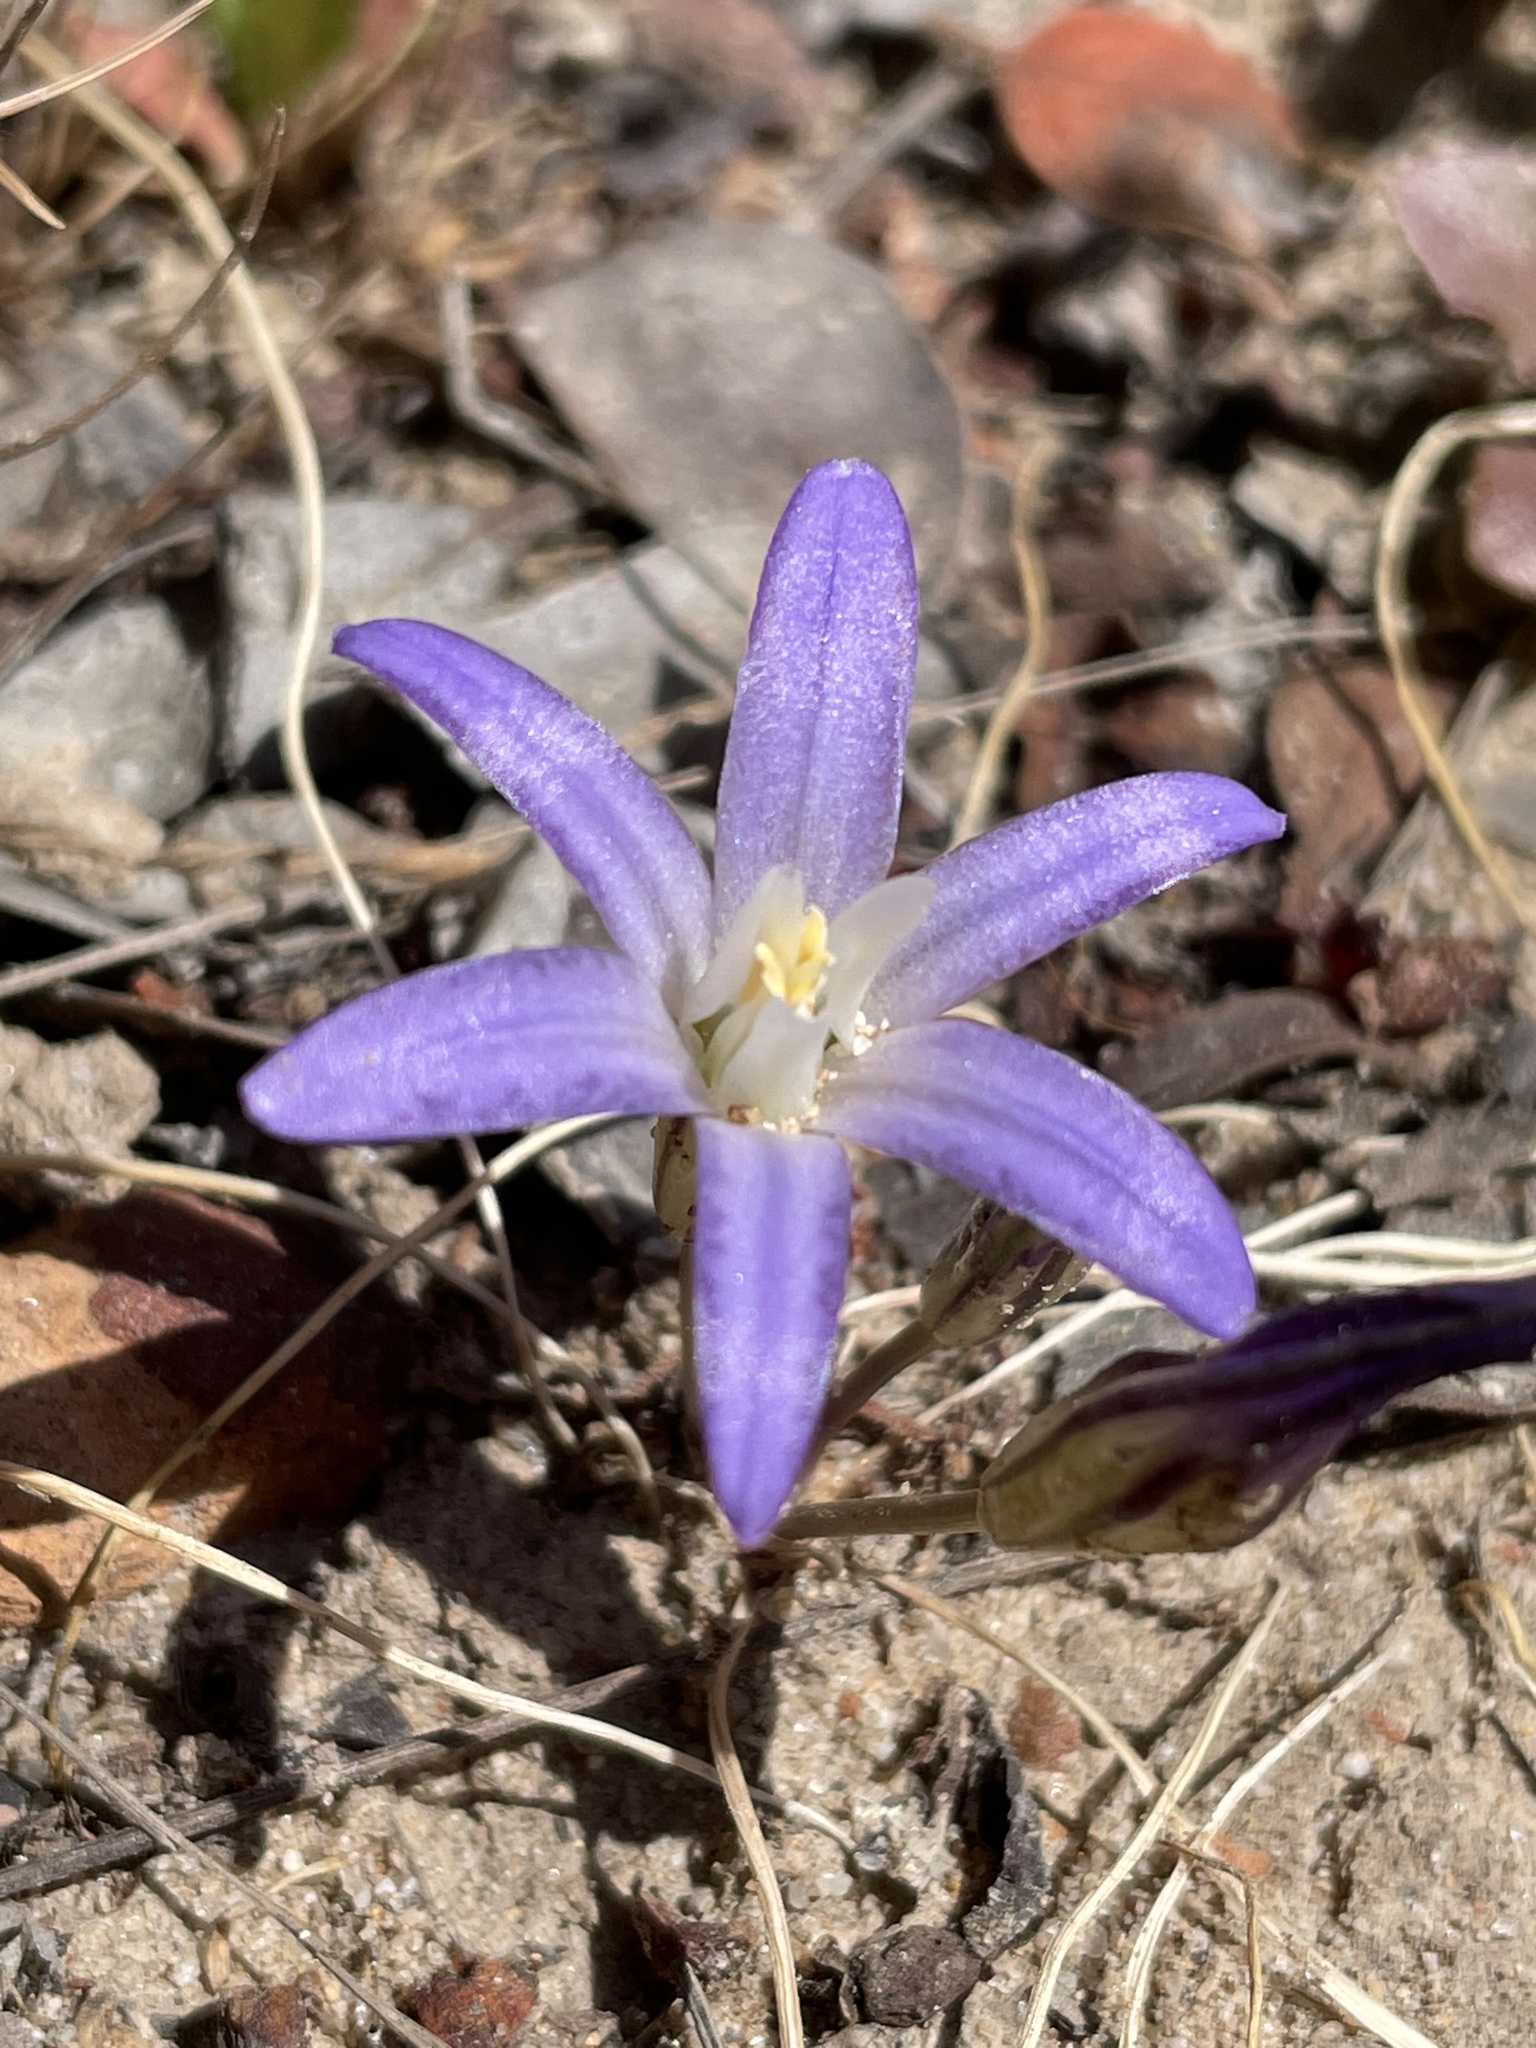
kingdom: Plantae
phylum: Tracheophyta
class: Liliopsida
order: Asparagales
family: Asparagaceae
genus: Brodiaea
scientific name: Brodiaea terrestris
